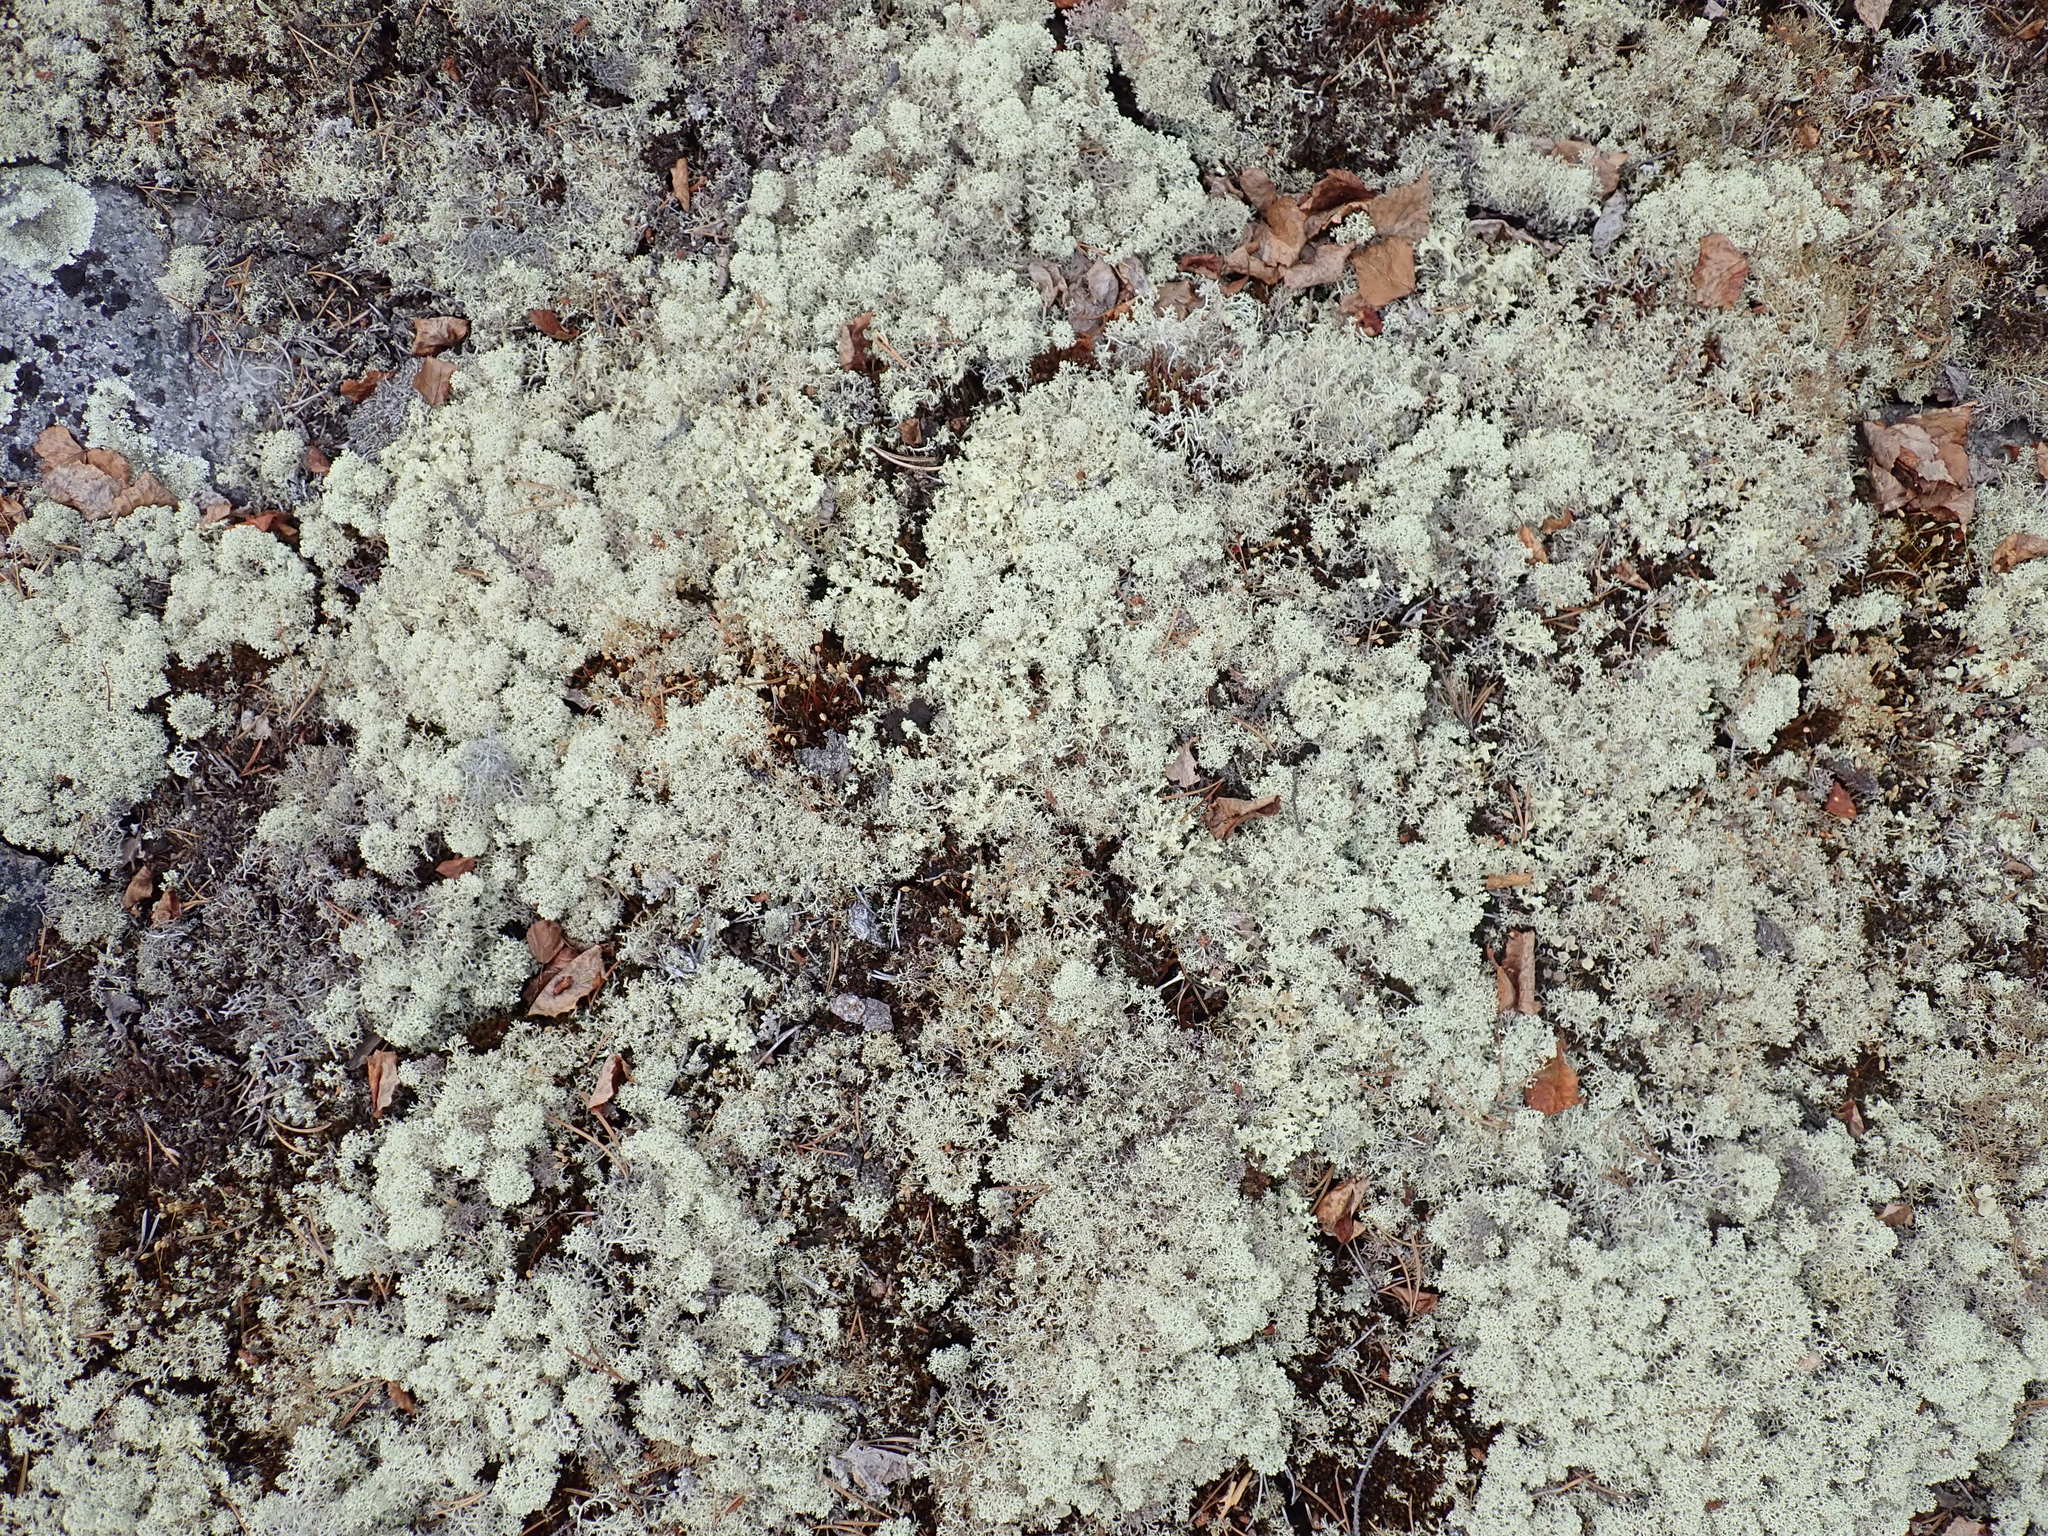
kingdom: Fungi
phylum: Ascomycota
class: Lecanoromycetes
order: Lecanorales
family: Cladoniaceae
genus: Cladonia
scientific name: Cladonia stellaris
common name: Star-tipped reindeer lichen
